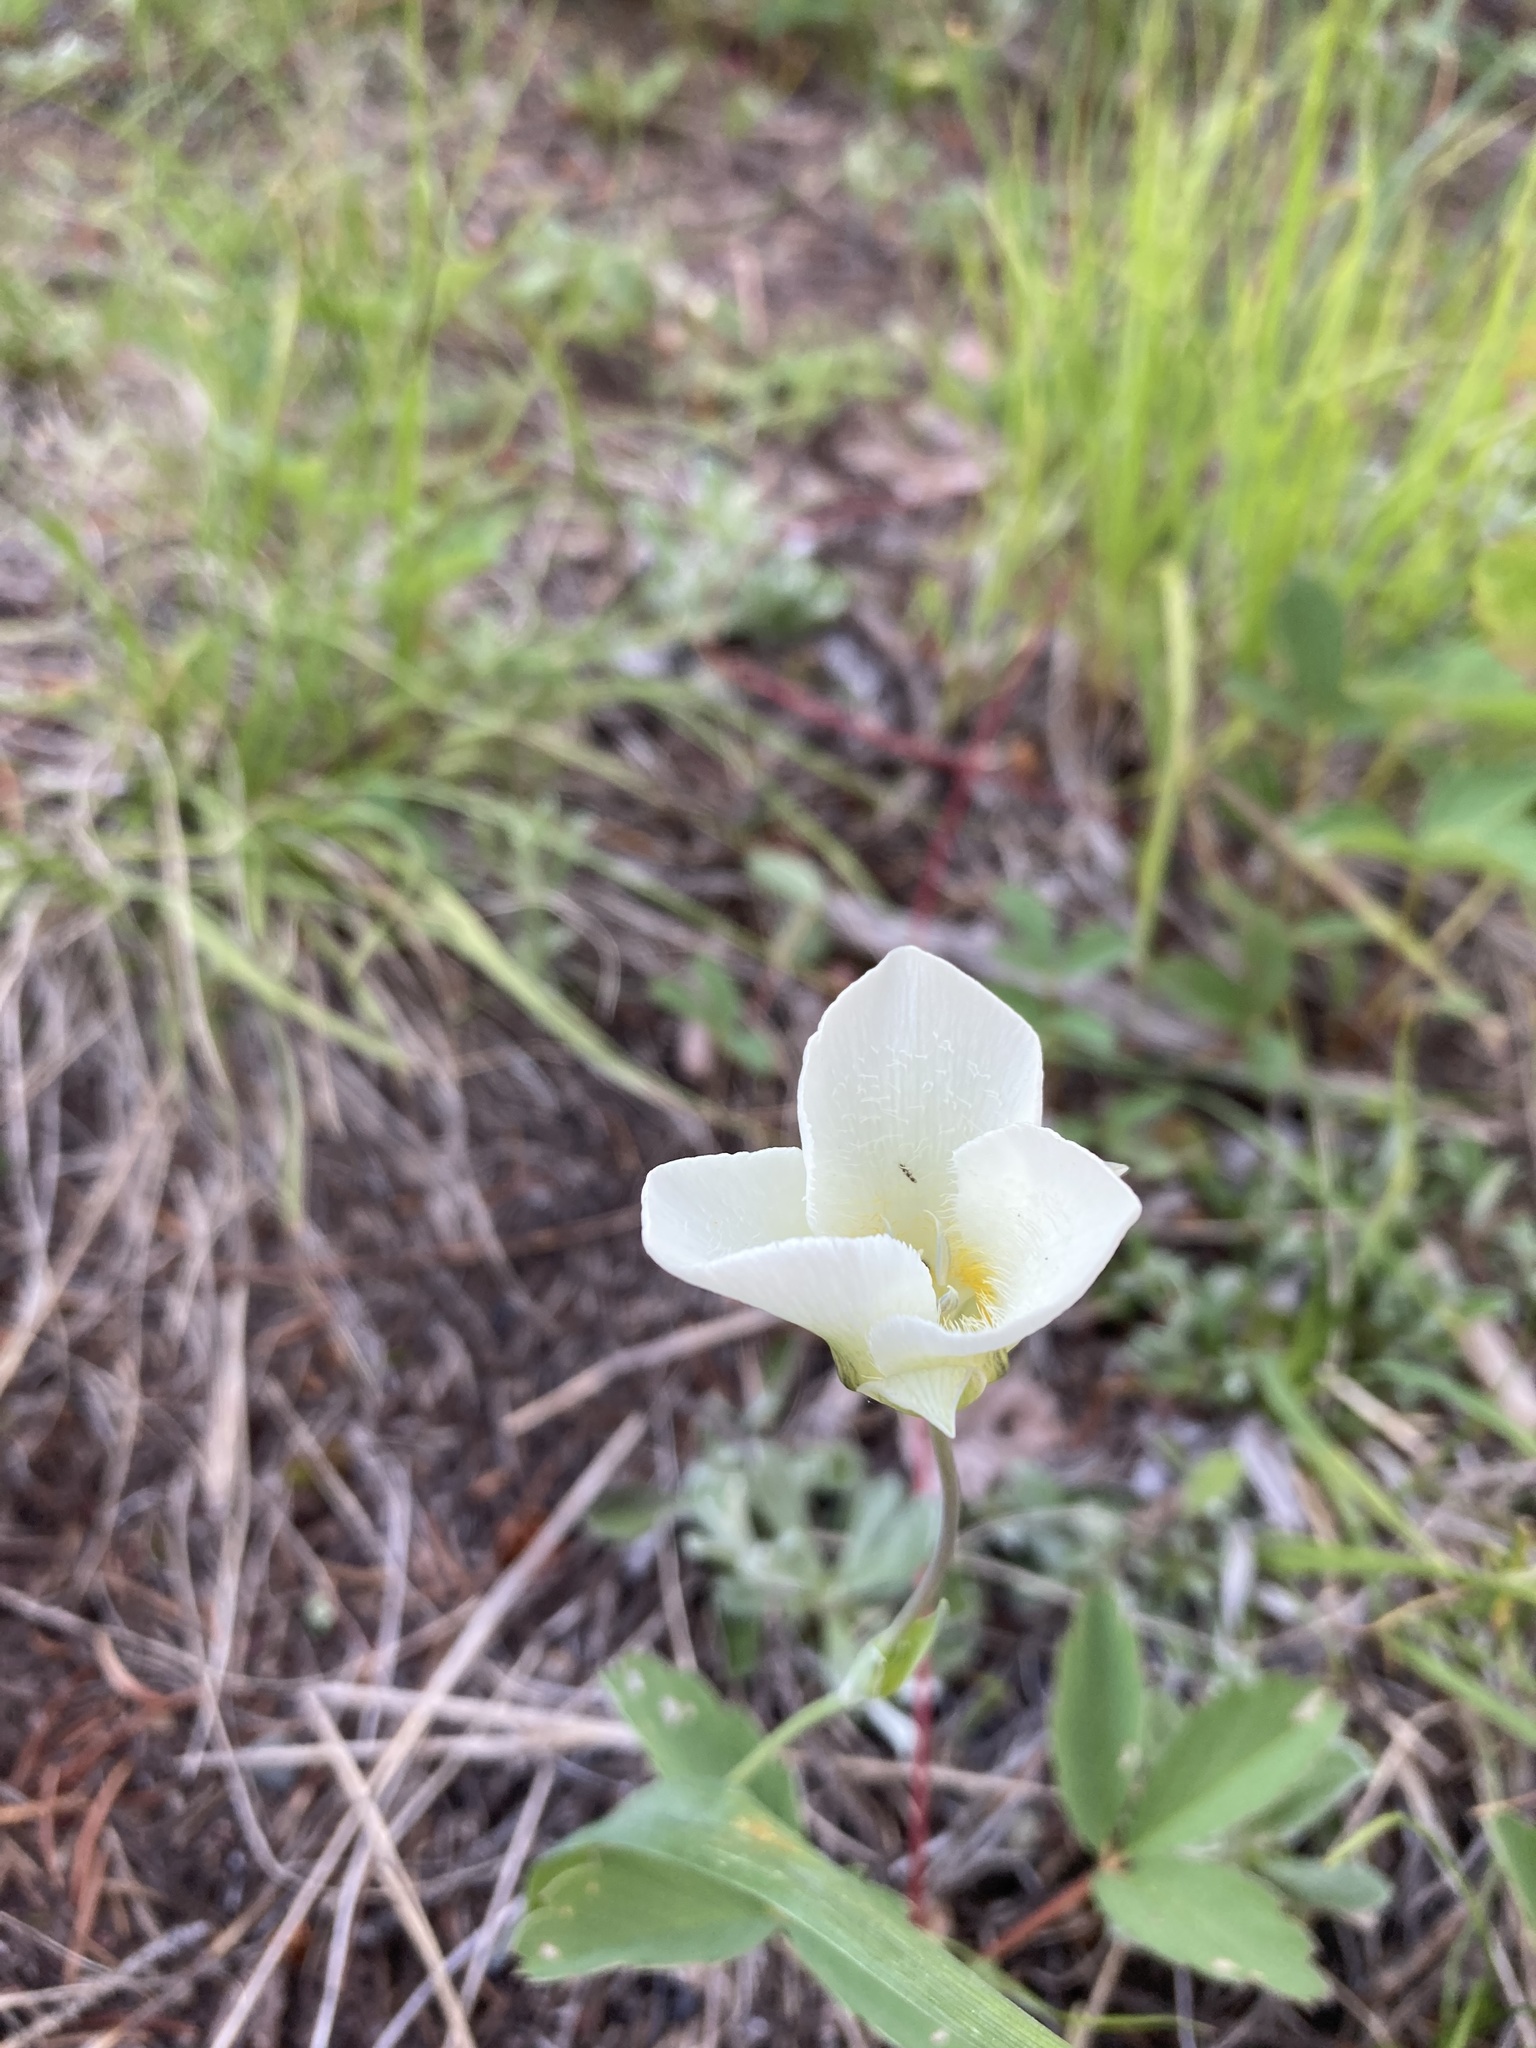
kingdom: Plantae
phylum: Tracheophyta
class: Liliopsida
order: Liliales
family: Liliaceae
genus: Calochortus
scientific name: Calochortus apiculatus
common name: Baker's mariposa lily
